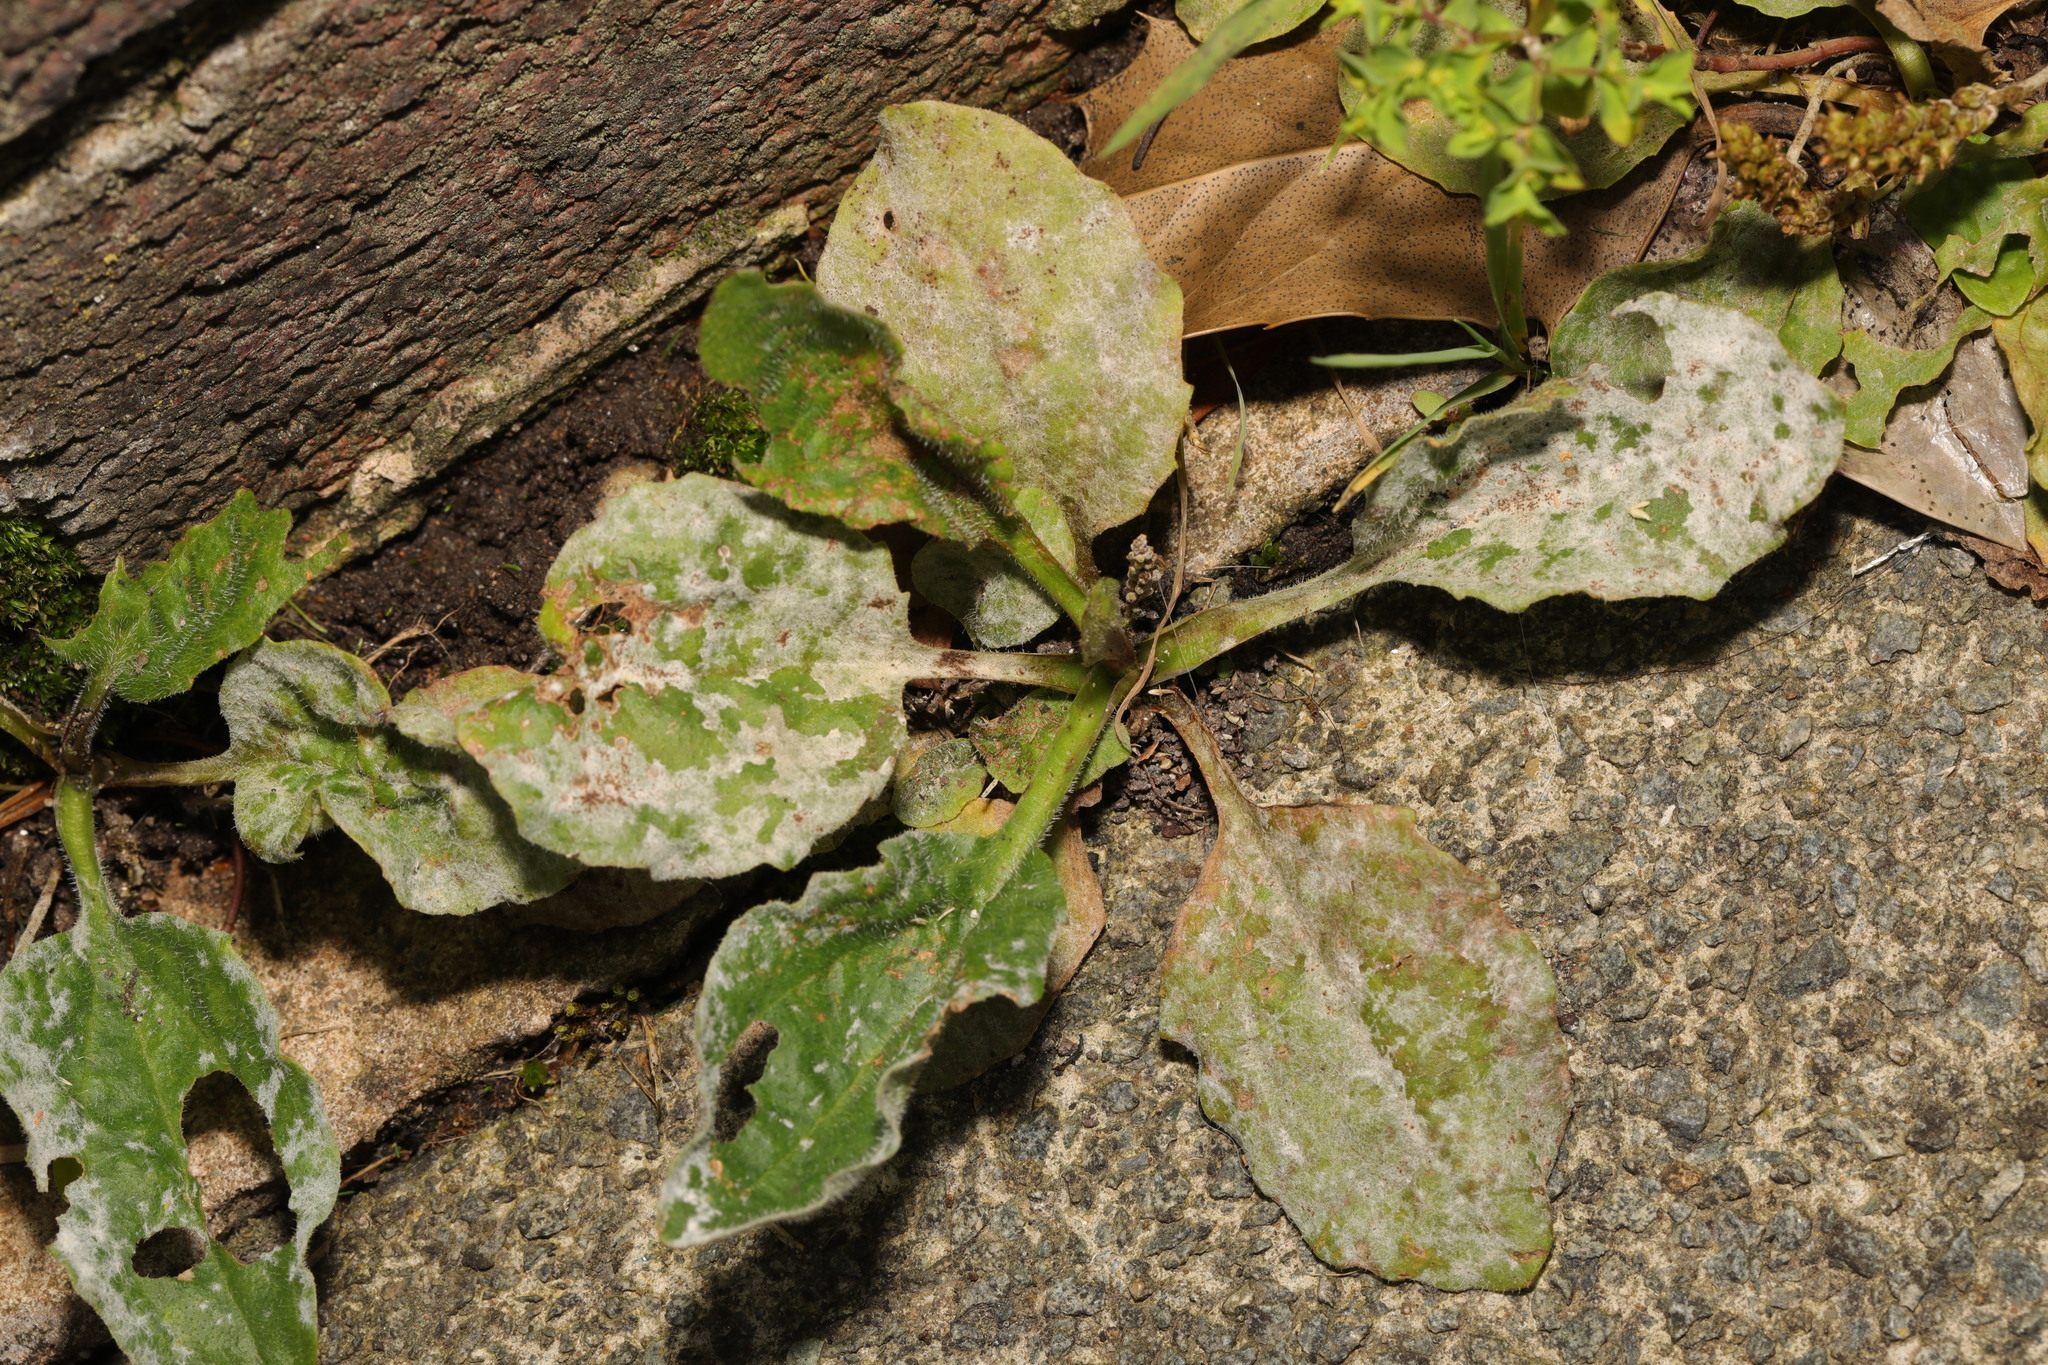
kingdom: Plantae
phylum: Tracheophyta
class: Magnoliopsida
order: Lamiales
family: Plantaginaceae
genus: Plantago
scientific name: Plantago major
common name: Common plantain
